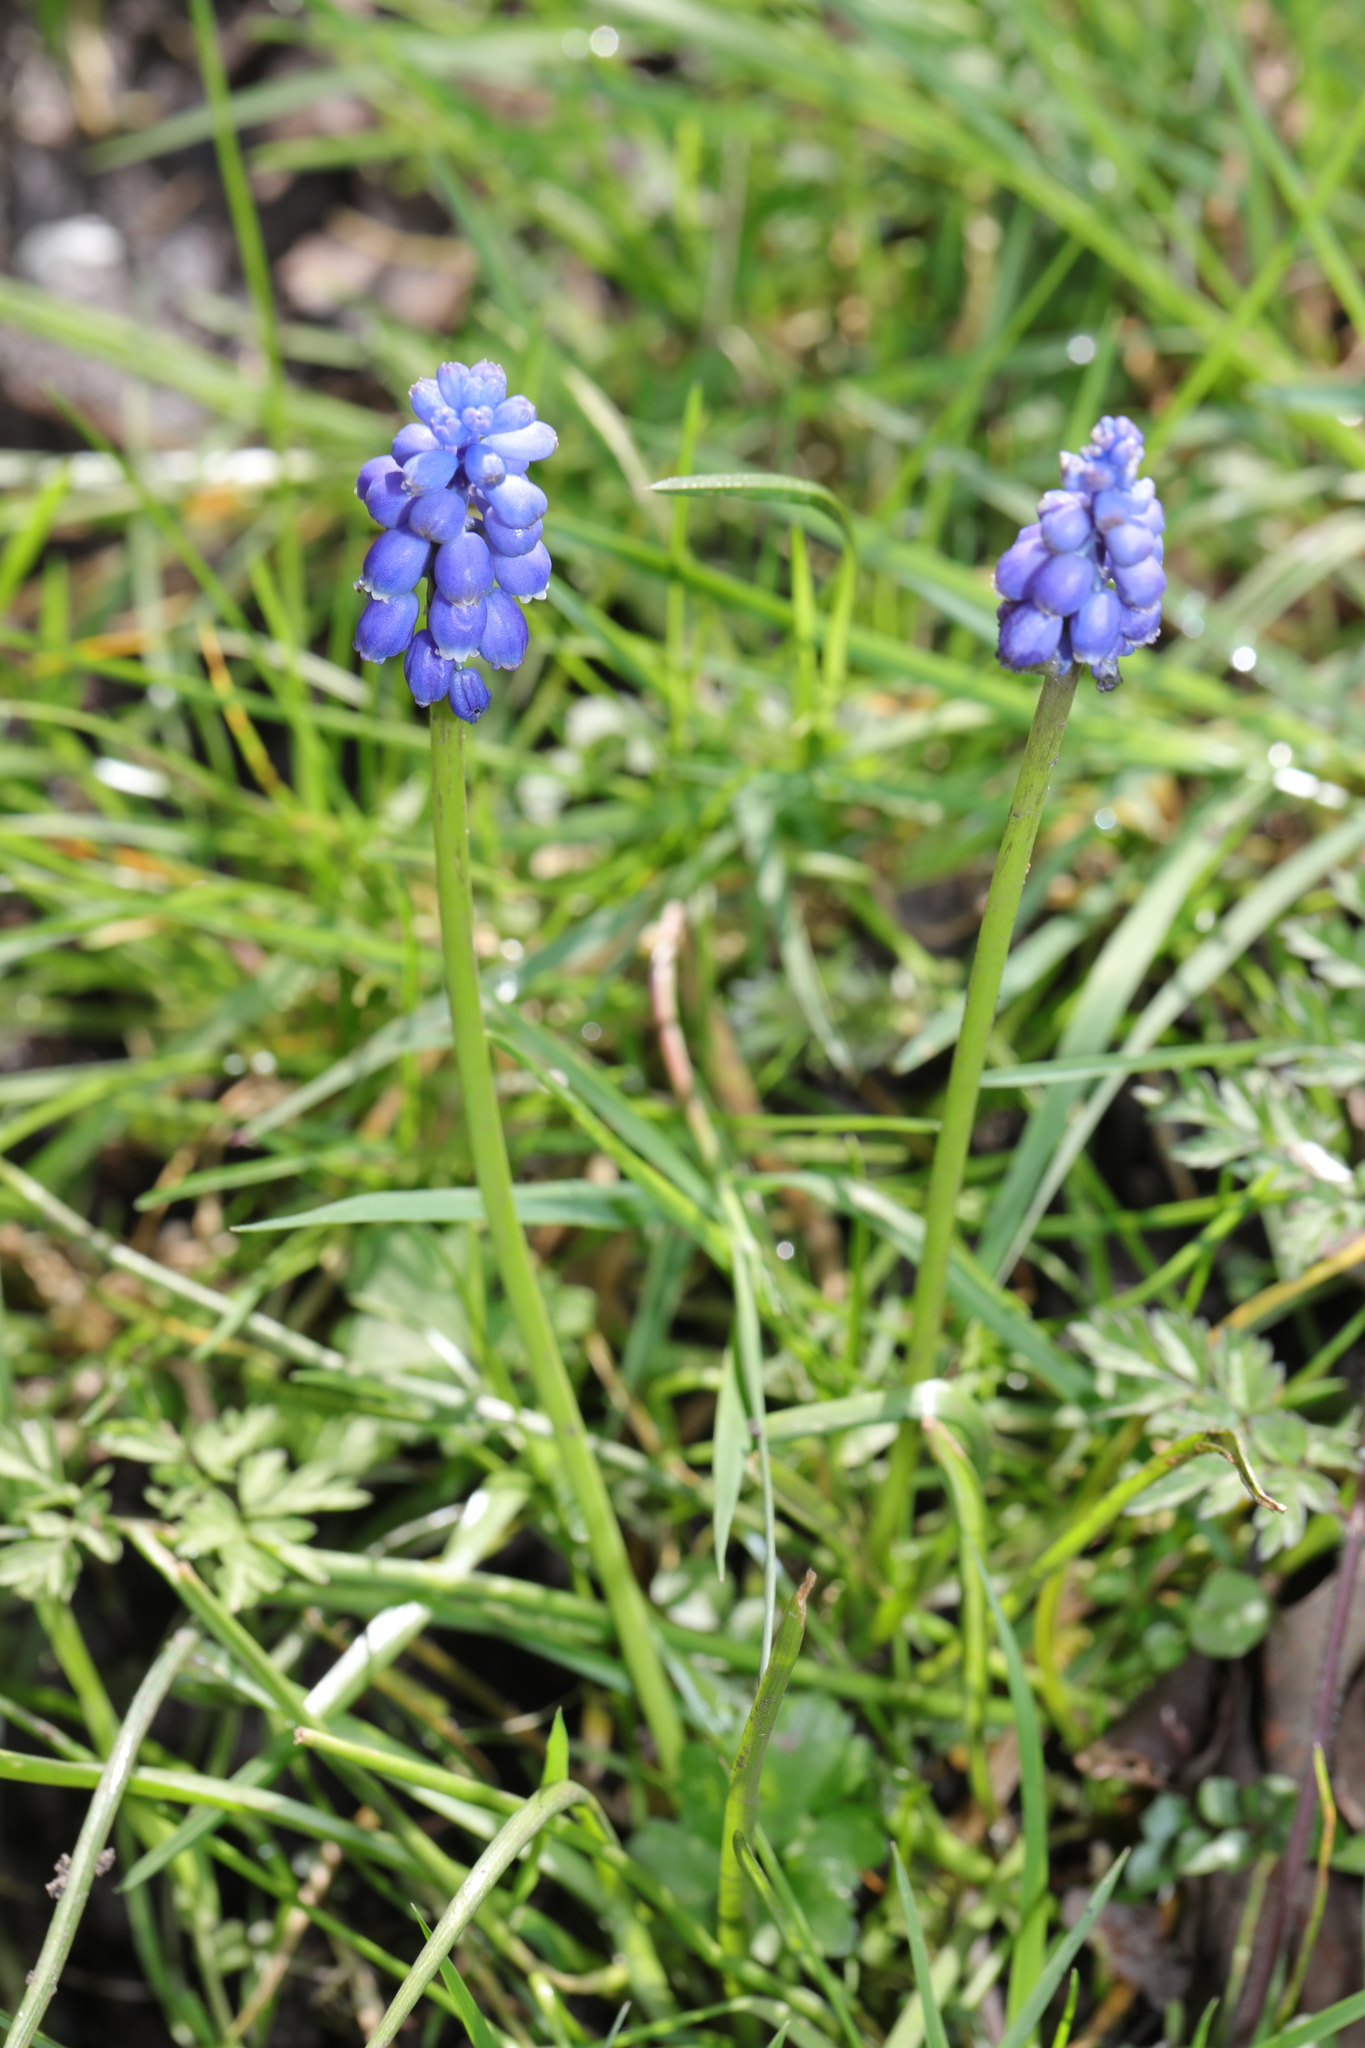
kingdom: Plantae
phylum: Tracheophyta
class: Liliopsida
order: Asparagales
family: Asparagaceae
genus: Muscari
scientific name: Muscari armeniacum
